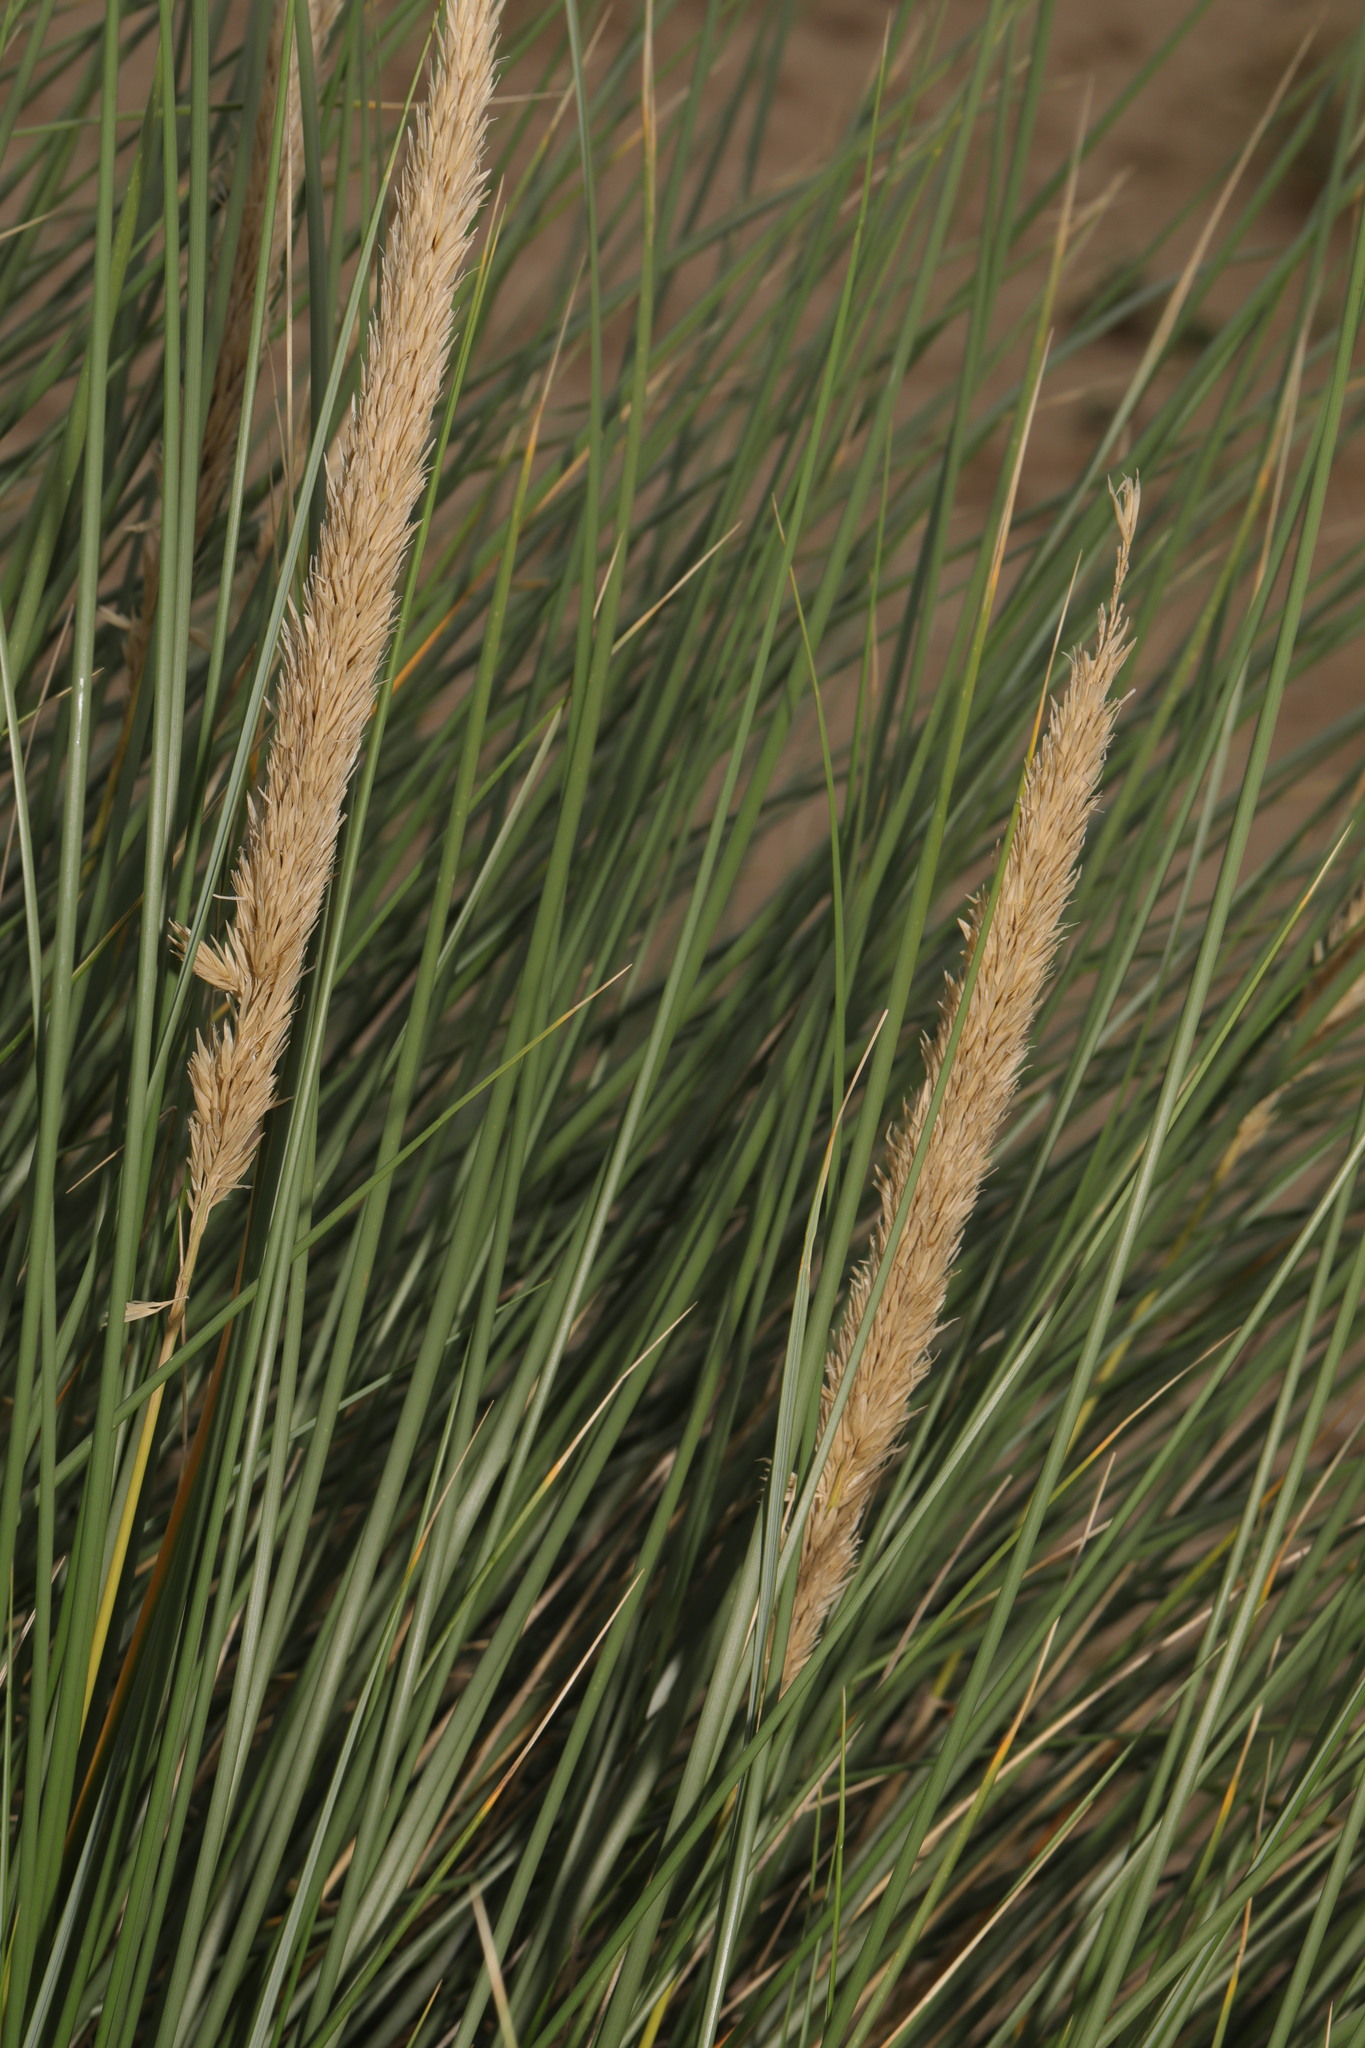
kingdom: Plantae
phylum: Tracheophyta
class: Liliopsida
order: Poales
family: Poaceae
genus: Calamagrostis
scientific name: Calamagrostis arenaria
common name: European beachgrass
